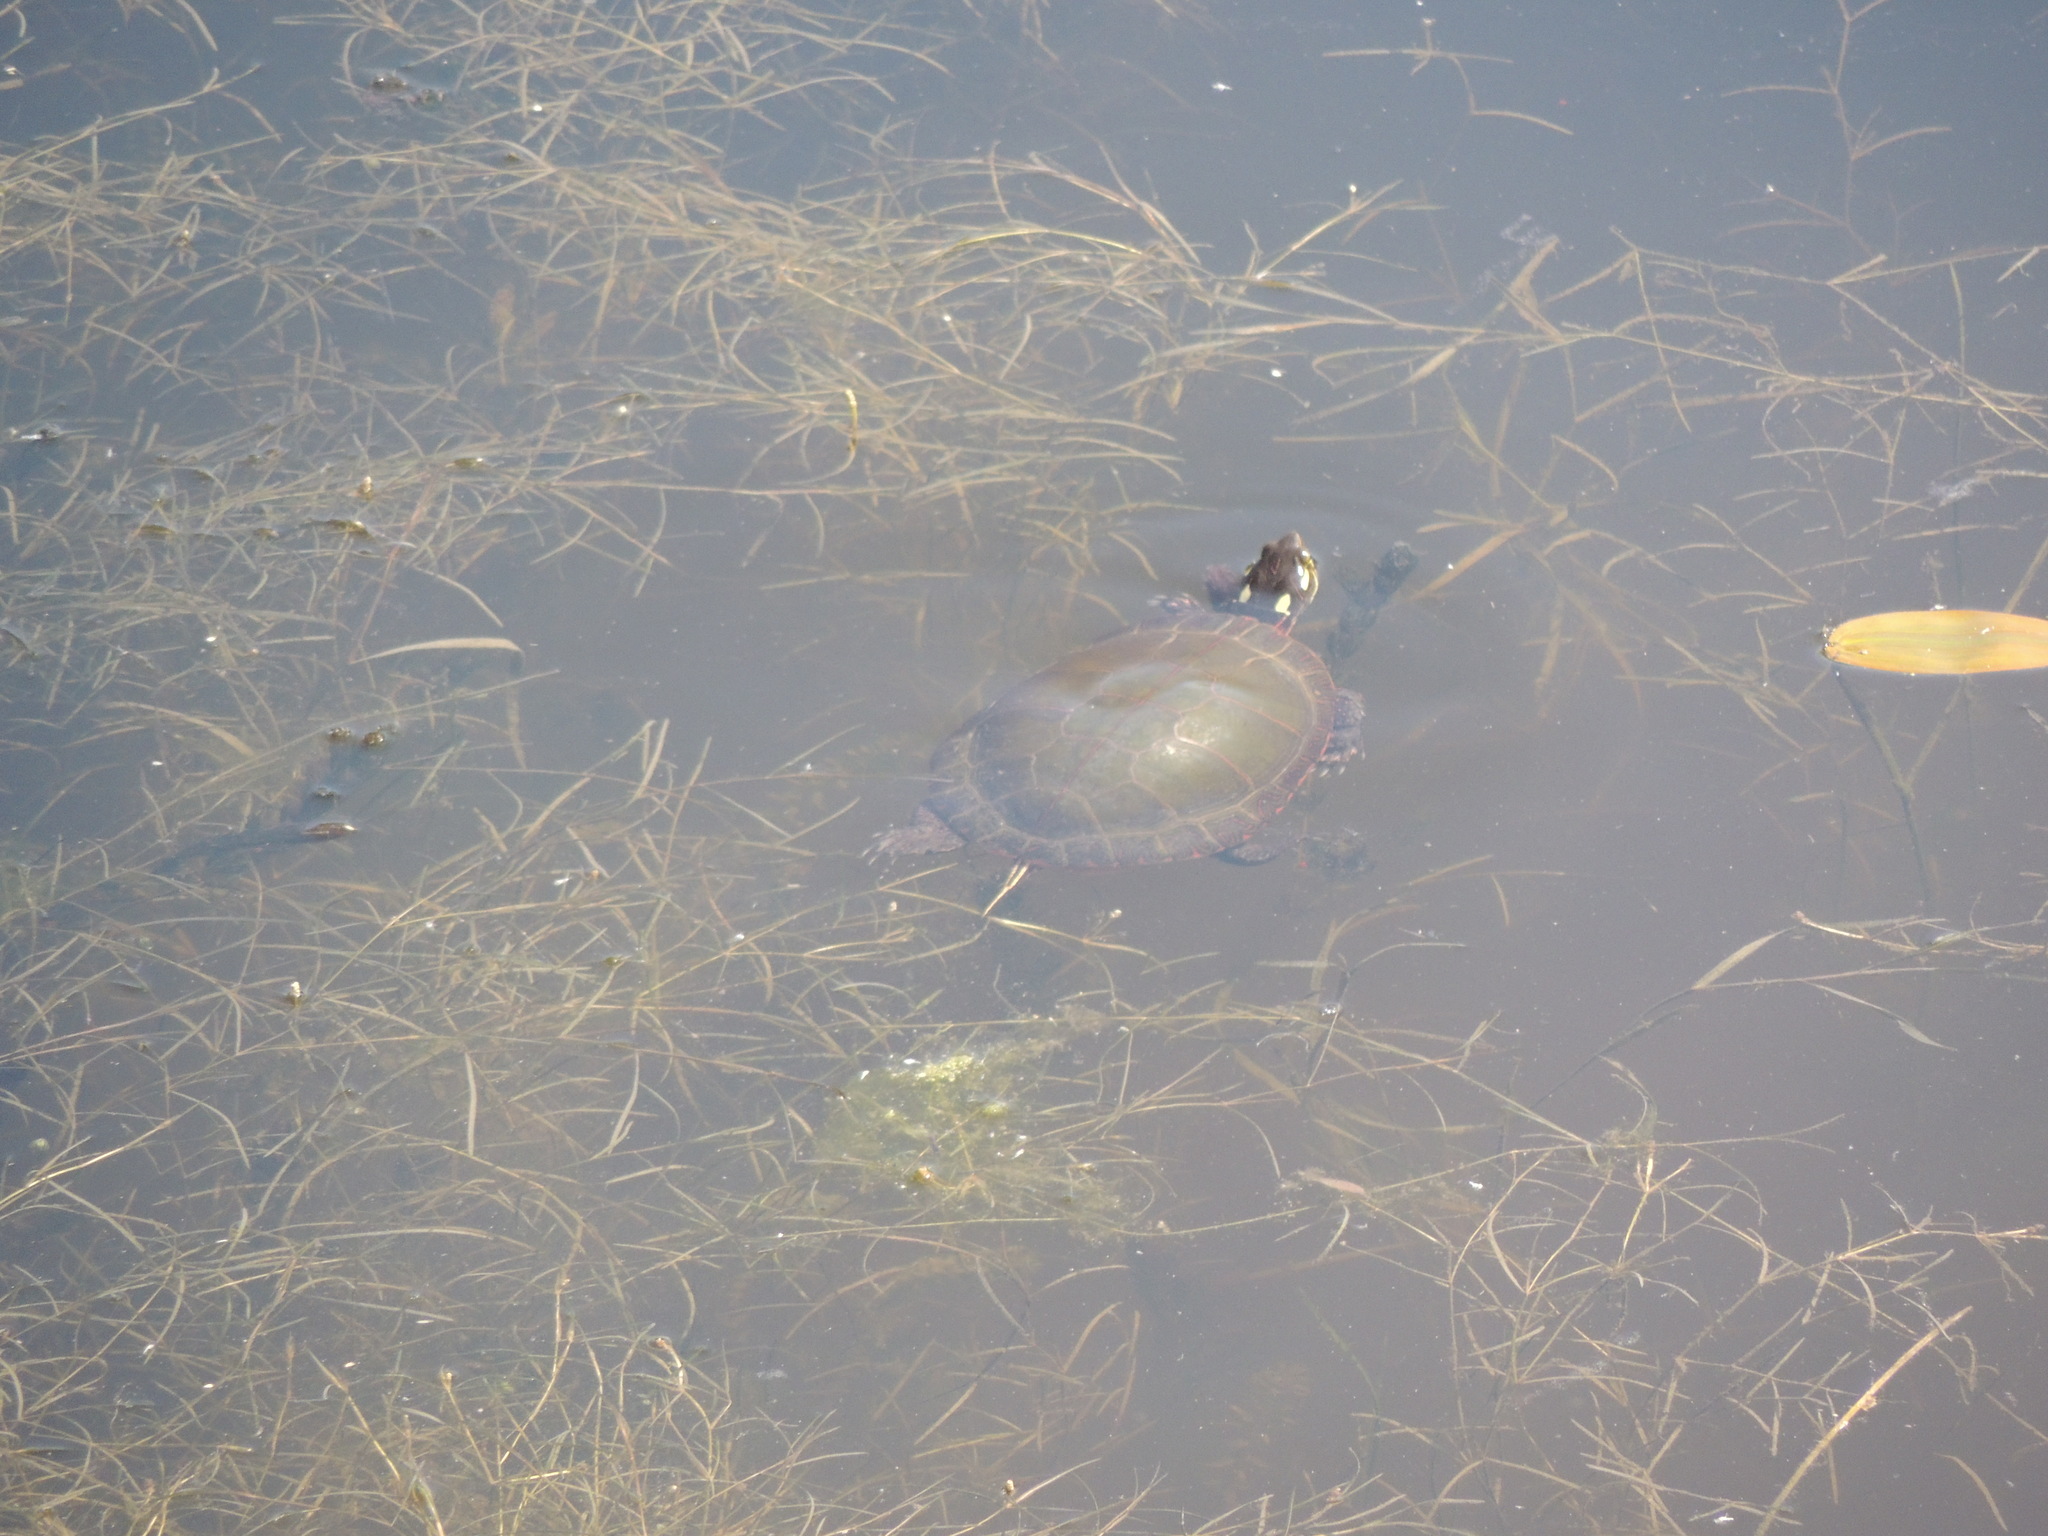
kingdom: Animalia
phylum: Chordata
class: Testudines
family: Emydidae
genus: Chrysemys
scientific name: Chrysemys picta
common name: Painted turtle
